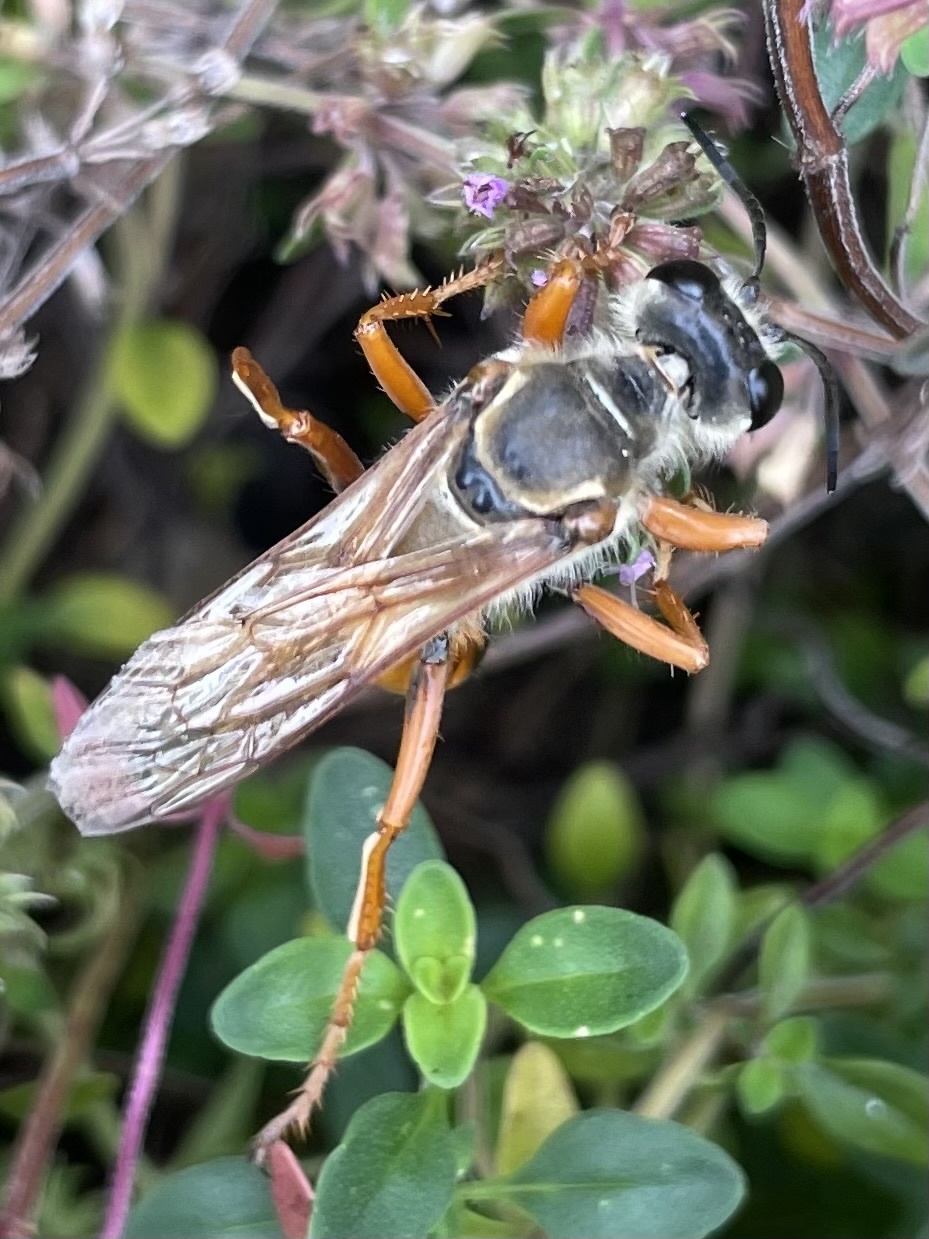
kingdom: Animalia
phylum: Arthropoda
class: Insecta
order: Hymenoptera
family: Sphecidae
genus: Sphex
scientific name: Sphex ichneumoneus
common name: Great golden digger wasp
